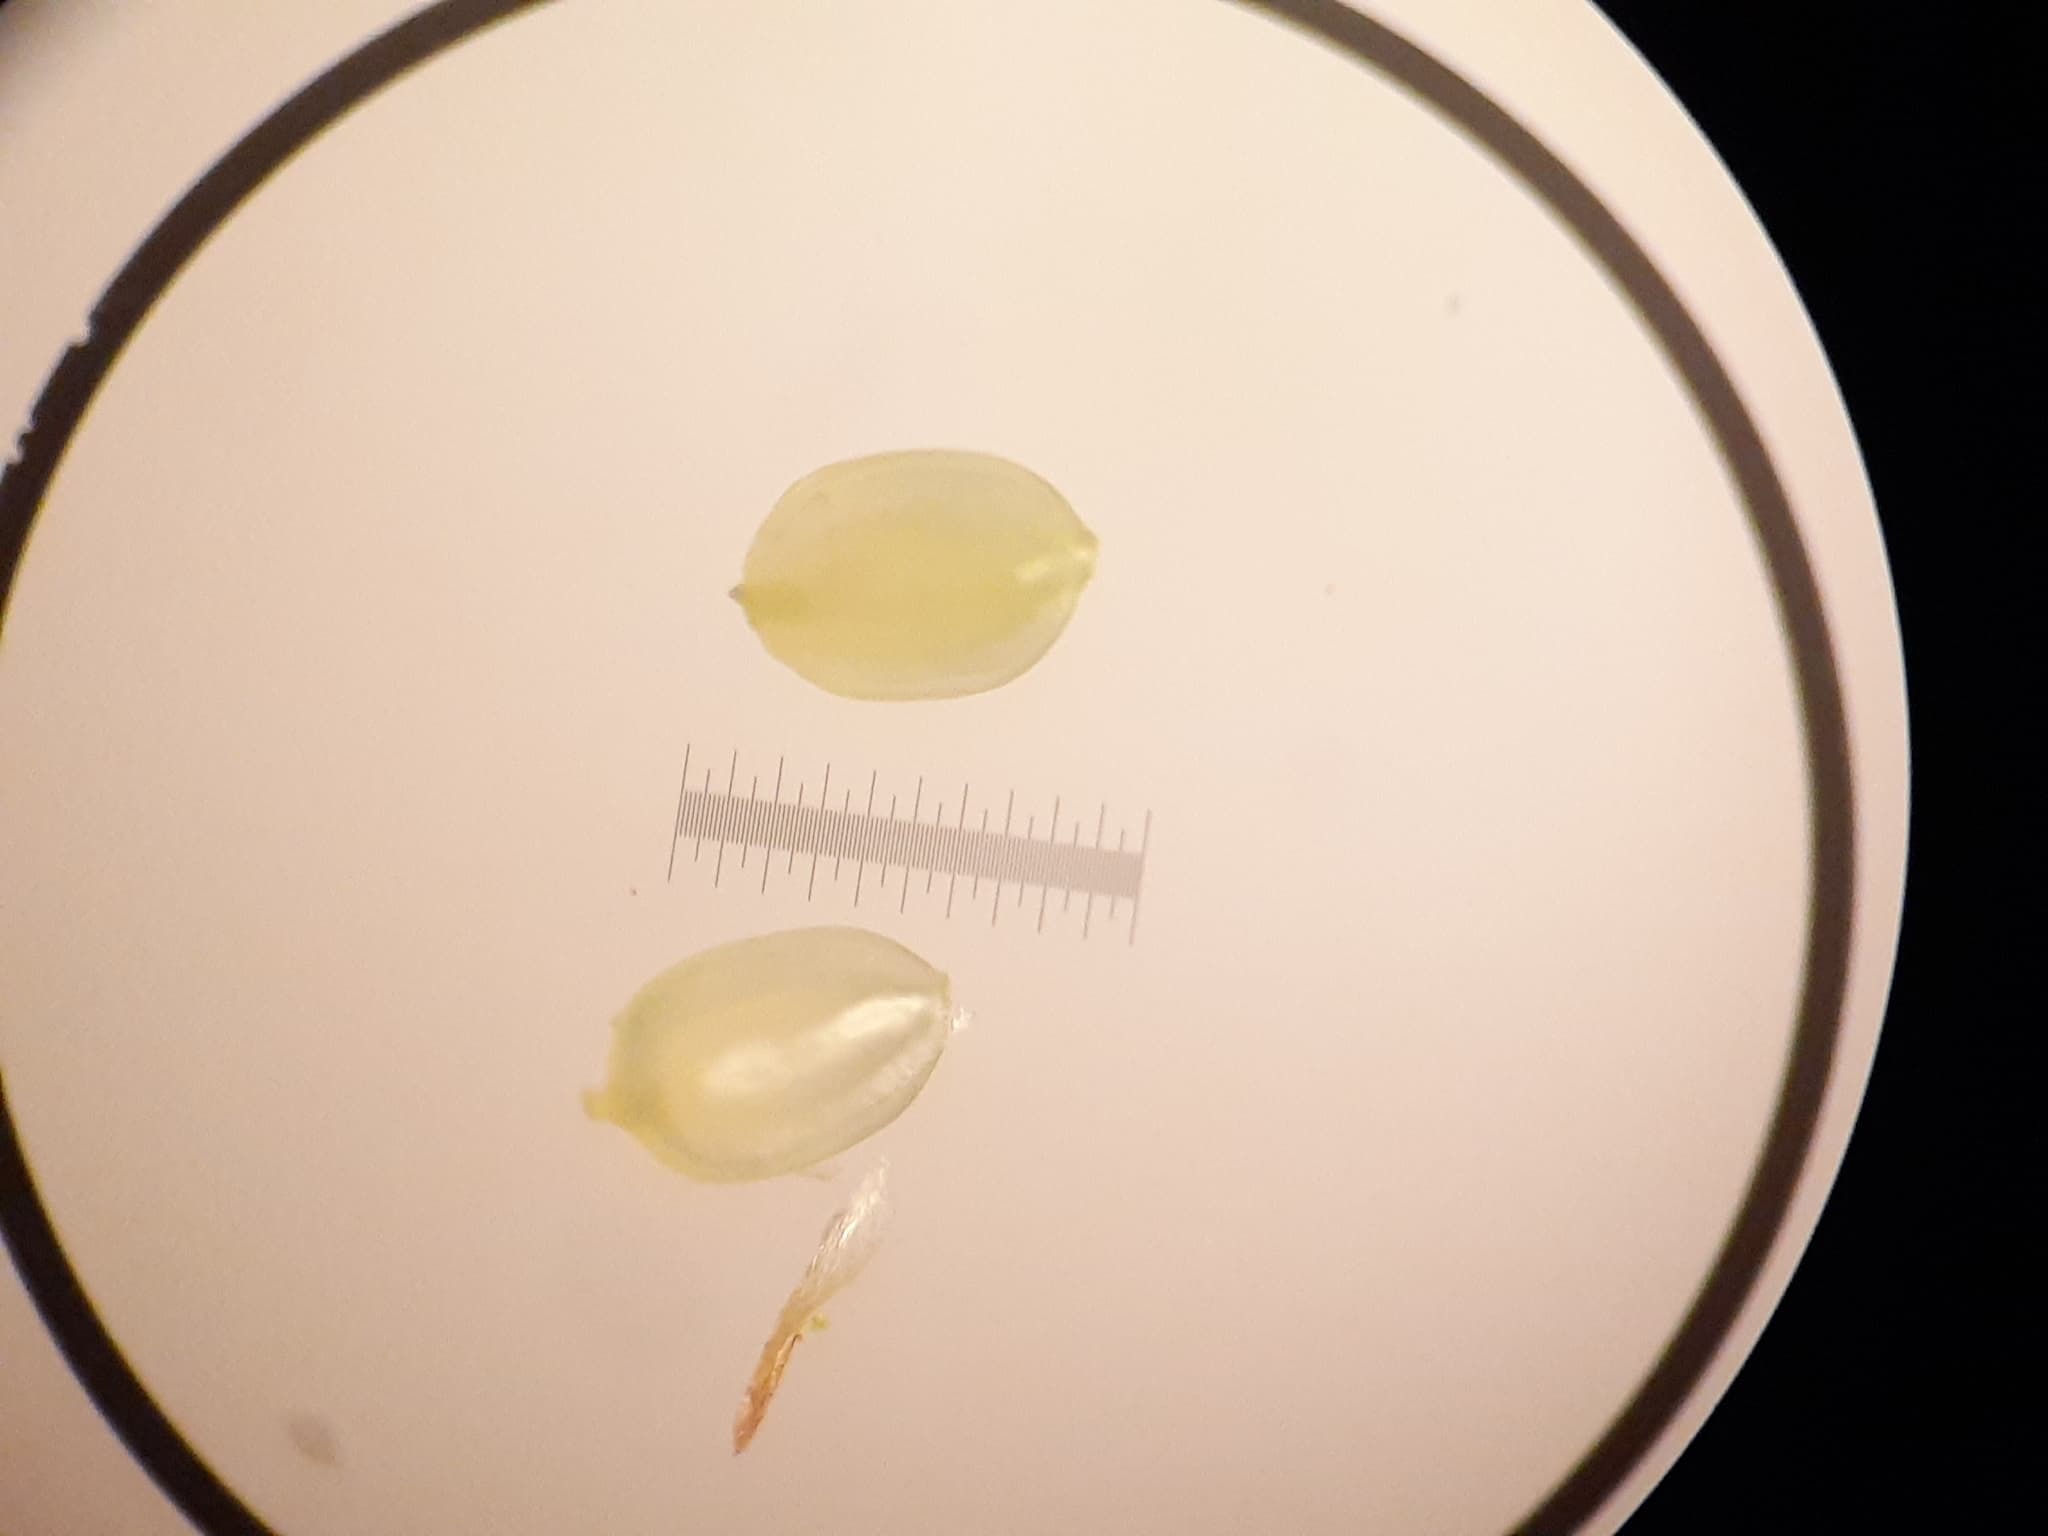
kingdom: Plantae
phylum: Tracheophyta
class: Liliopsida
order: Poales
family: Cyperaceae
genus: Cyperus
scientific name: Cyperus erythrorhizos
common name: Red-root flat sedge
